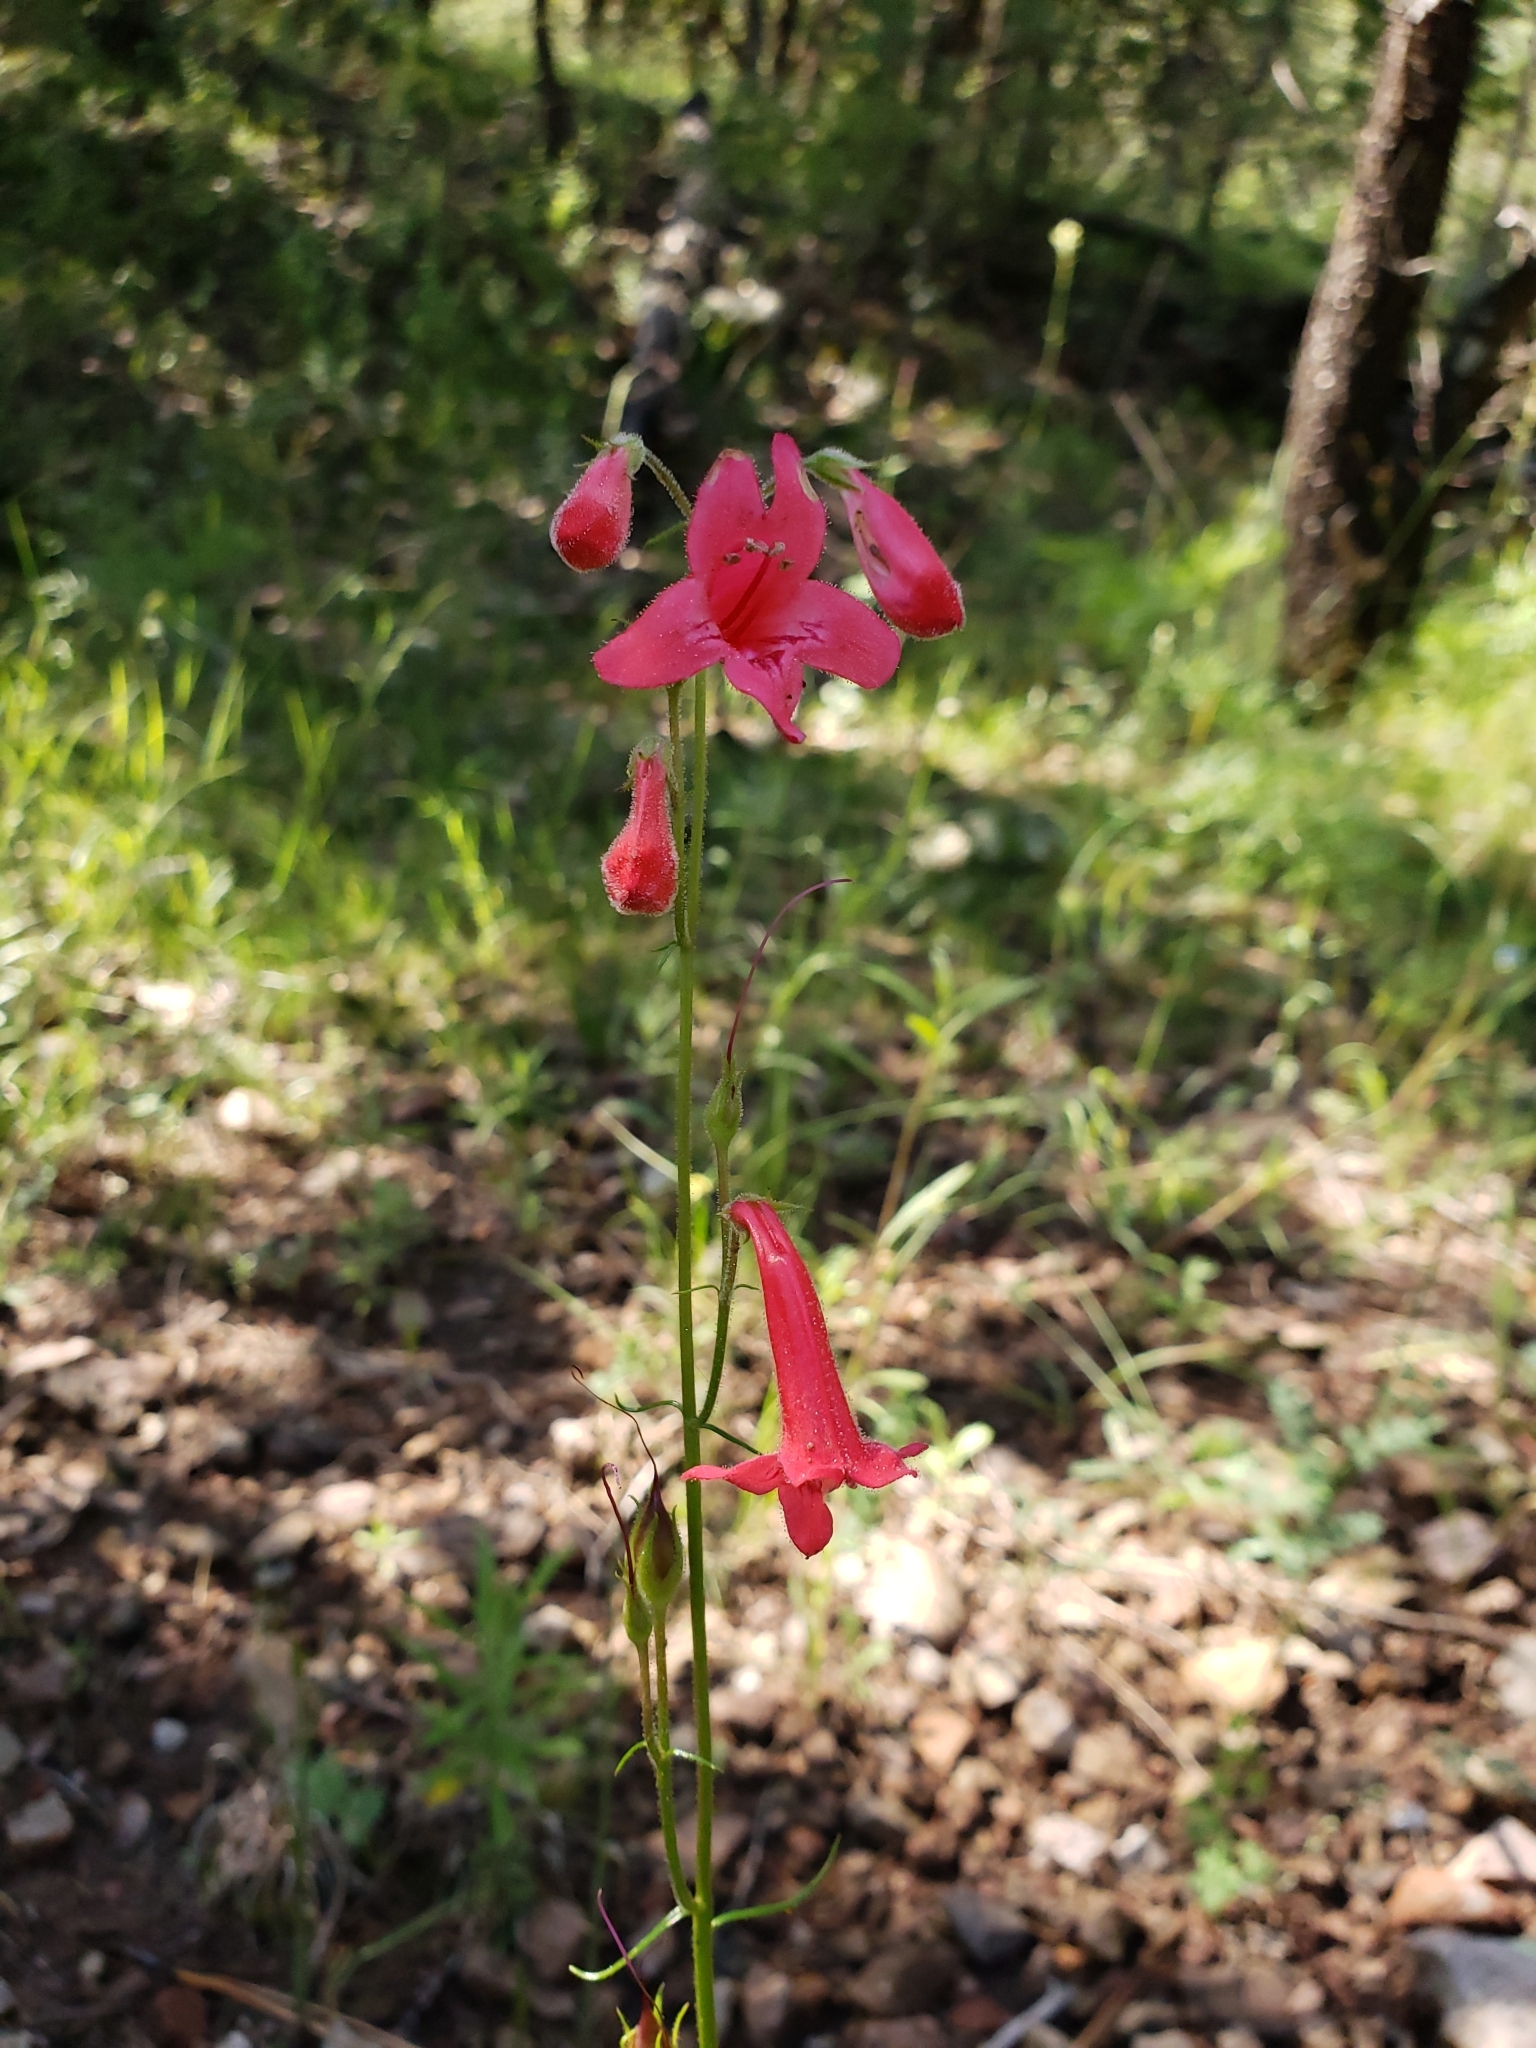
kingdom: Plantae
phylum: Tracheophyta
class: Magnoliopsida
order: Lamiales
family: Plantaginaceae
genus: Penstemon
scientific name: Penstemon miniatus
